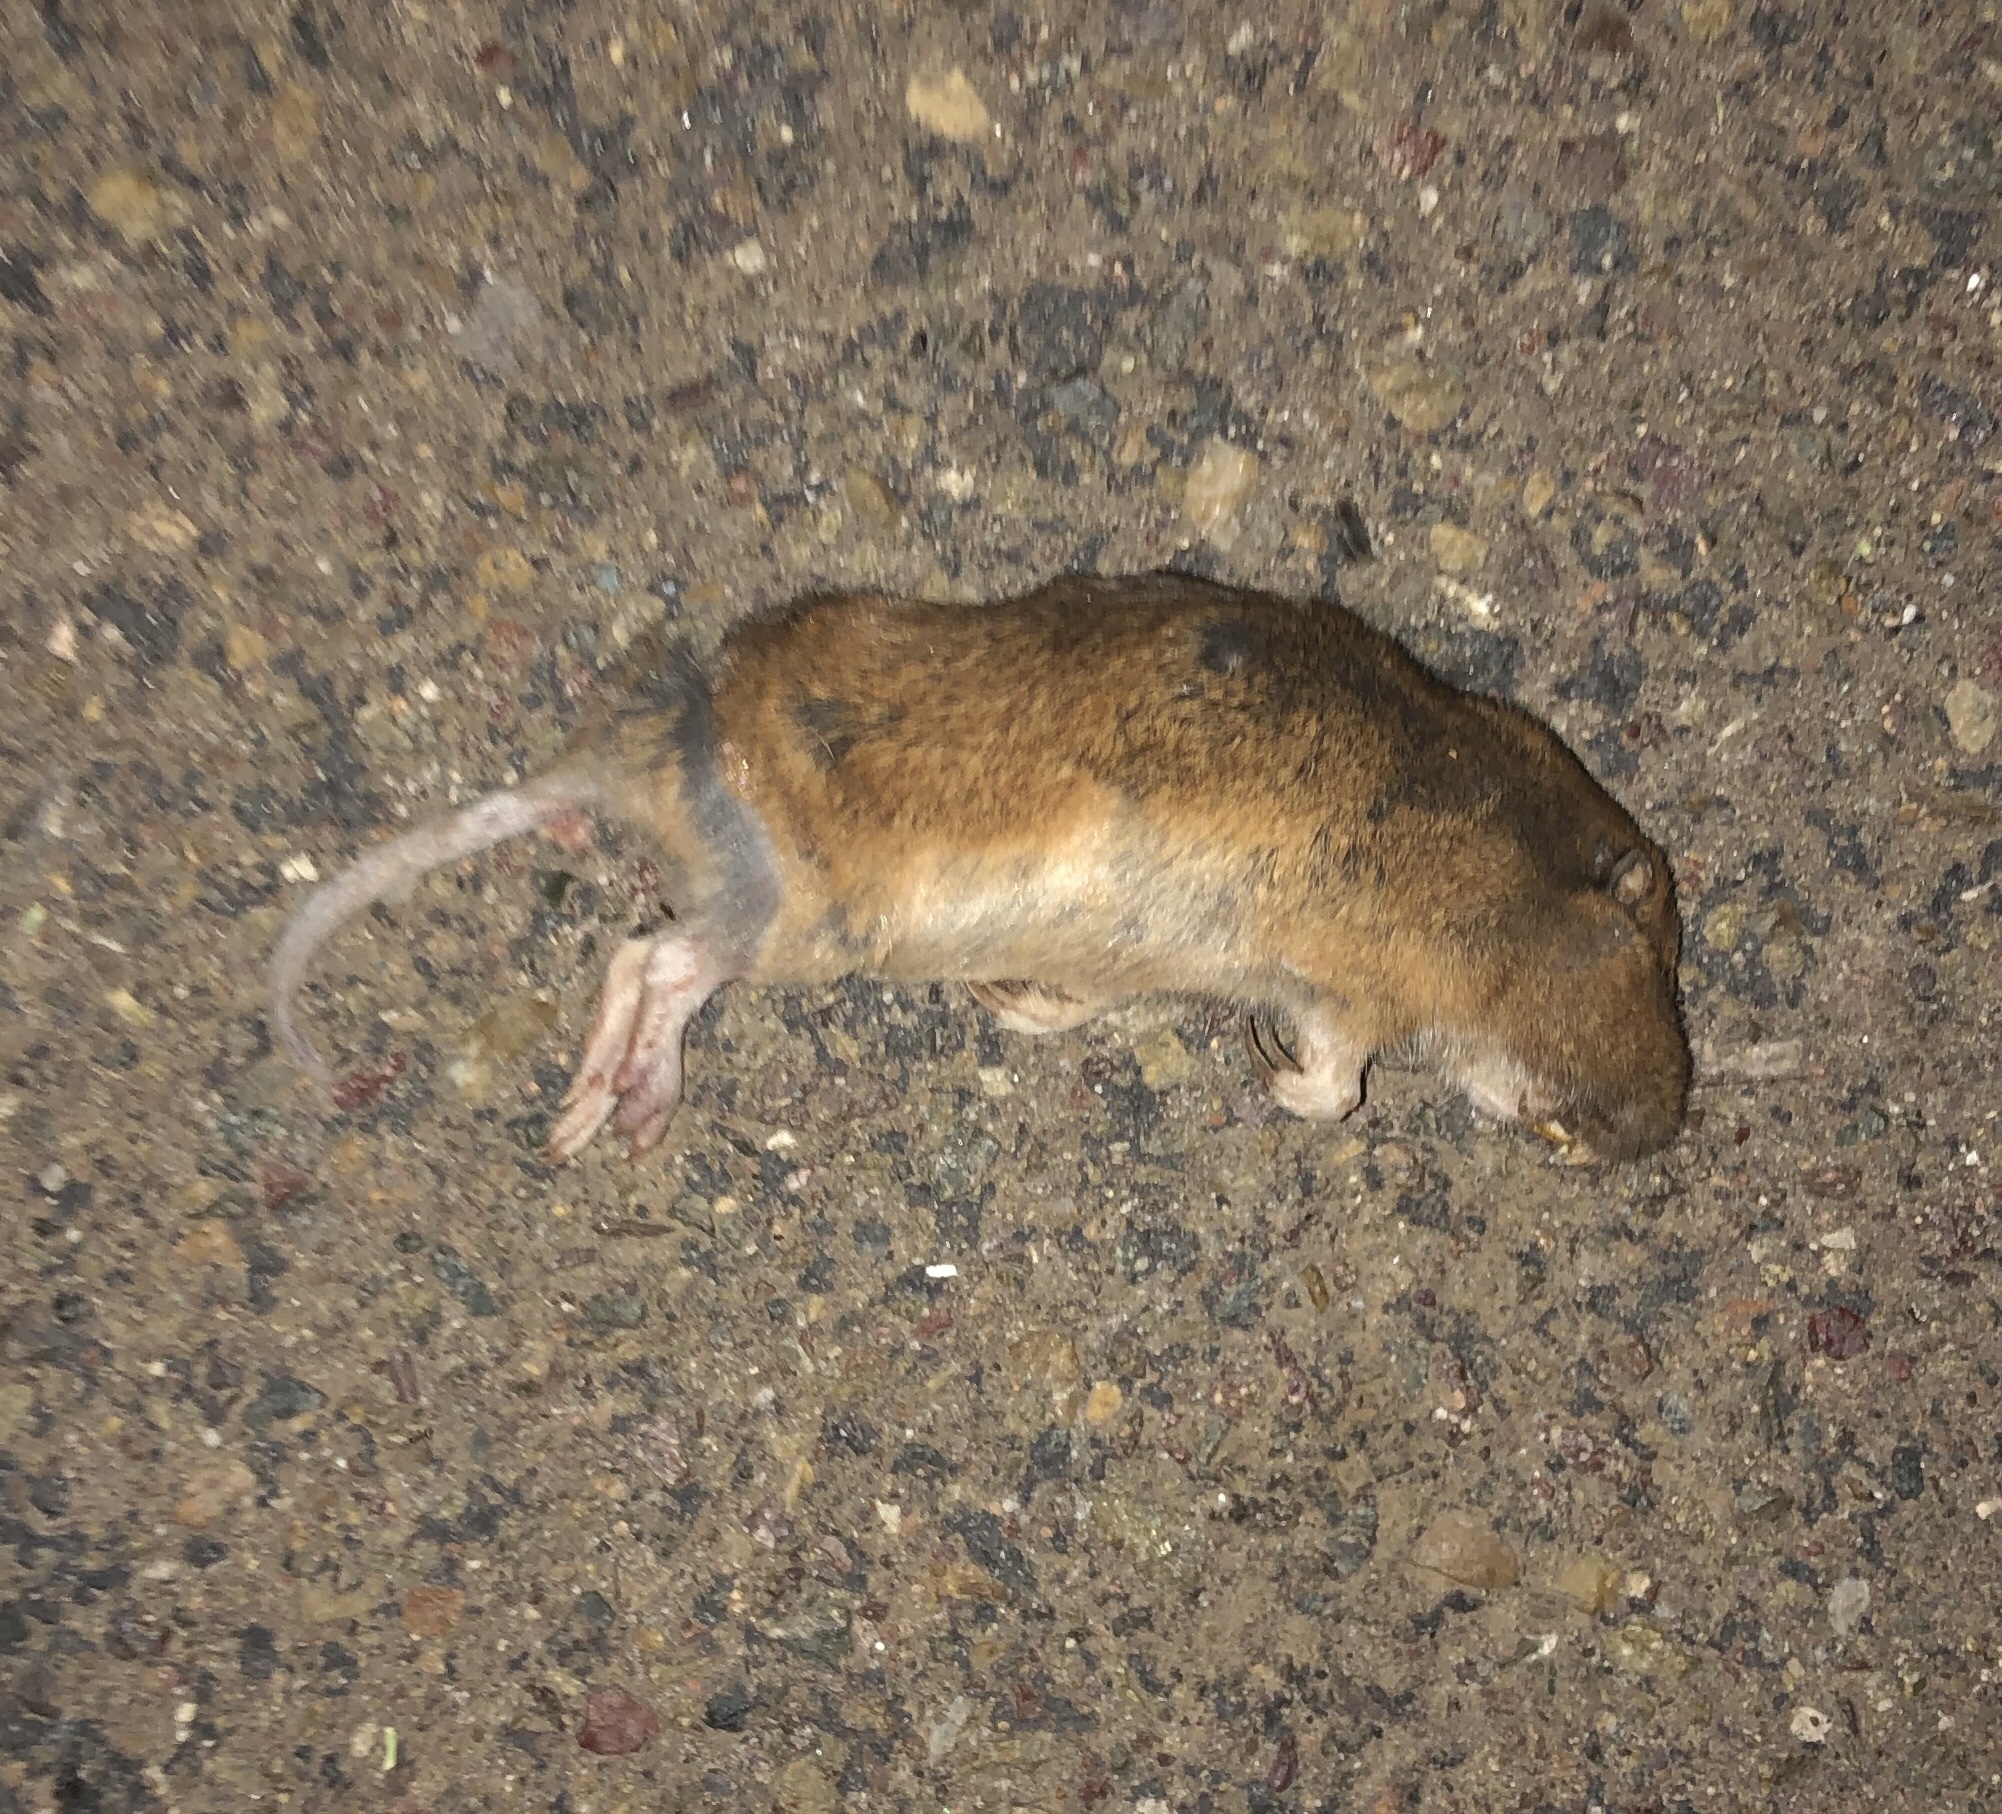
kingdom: Animalia
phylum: Chordata
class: Mammalia
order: Rodentia
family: Geomyidae
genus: Thomomys
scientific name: Thomomys bottae
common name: Botta's pocket gopher
